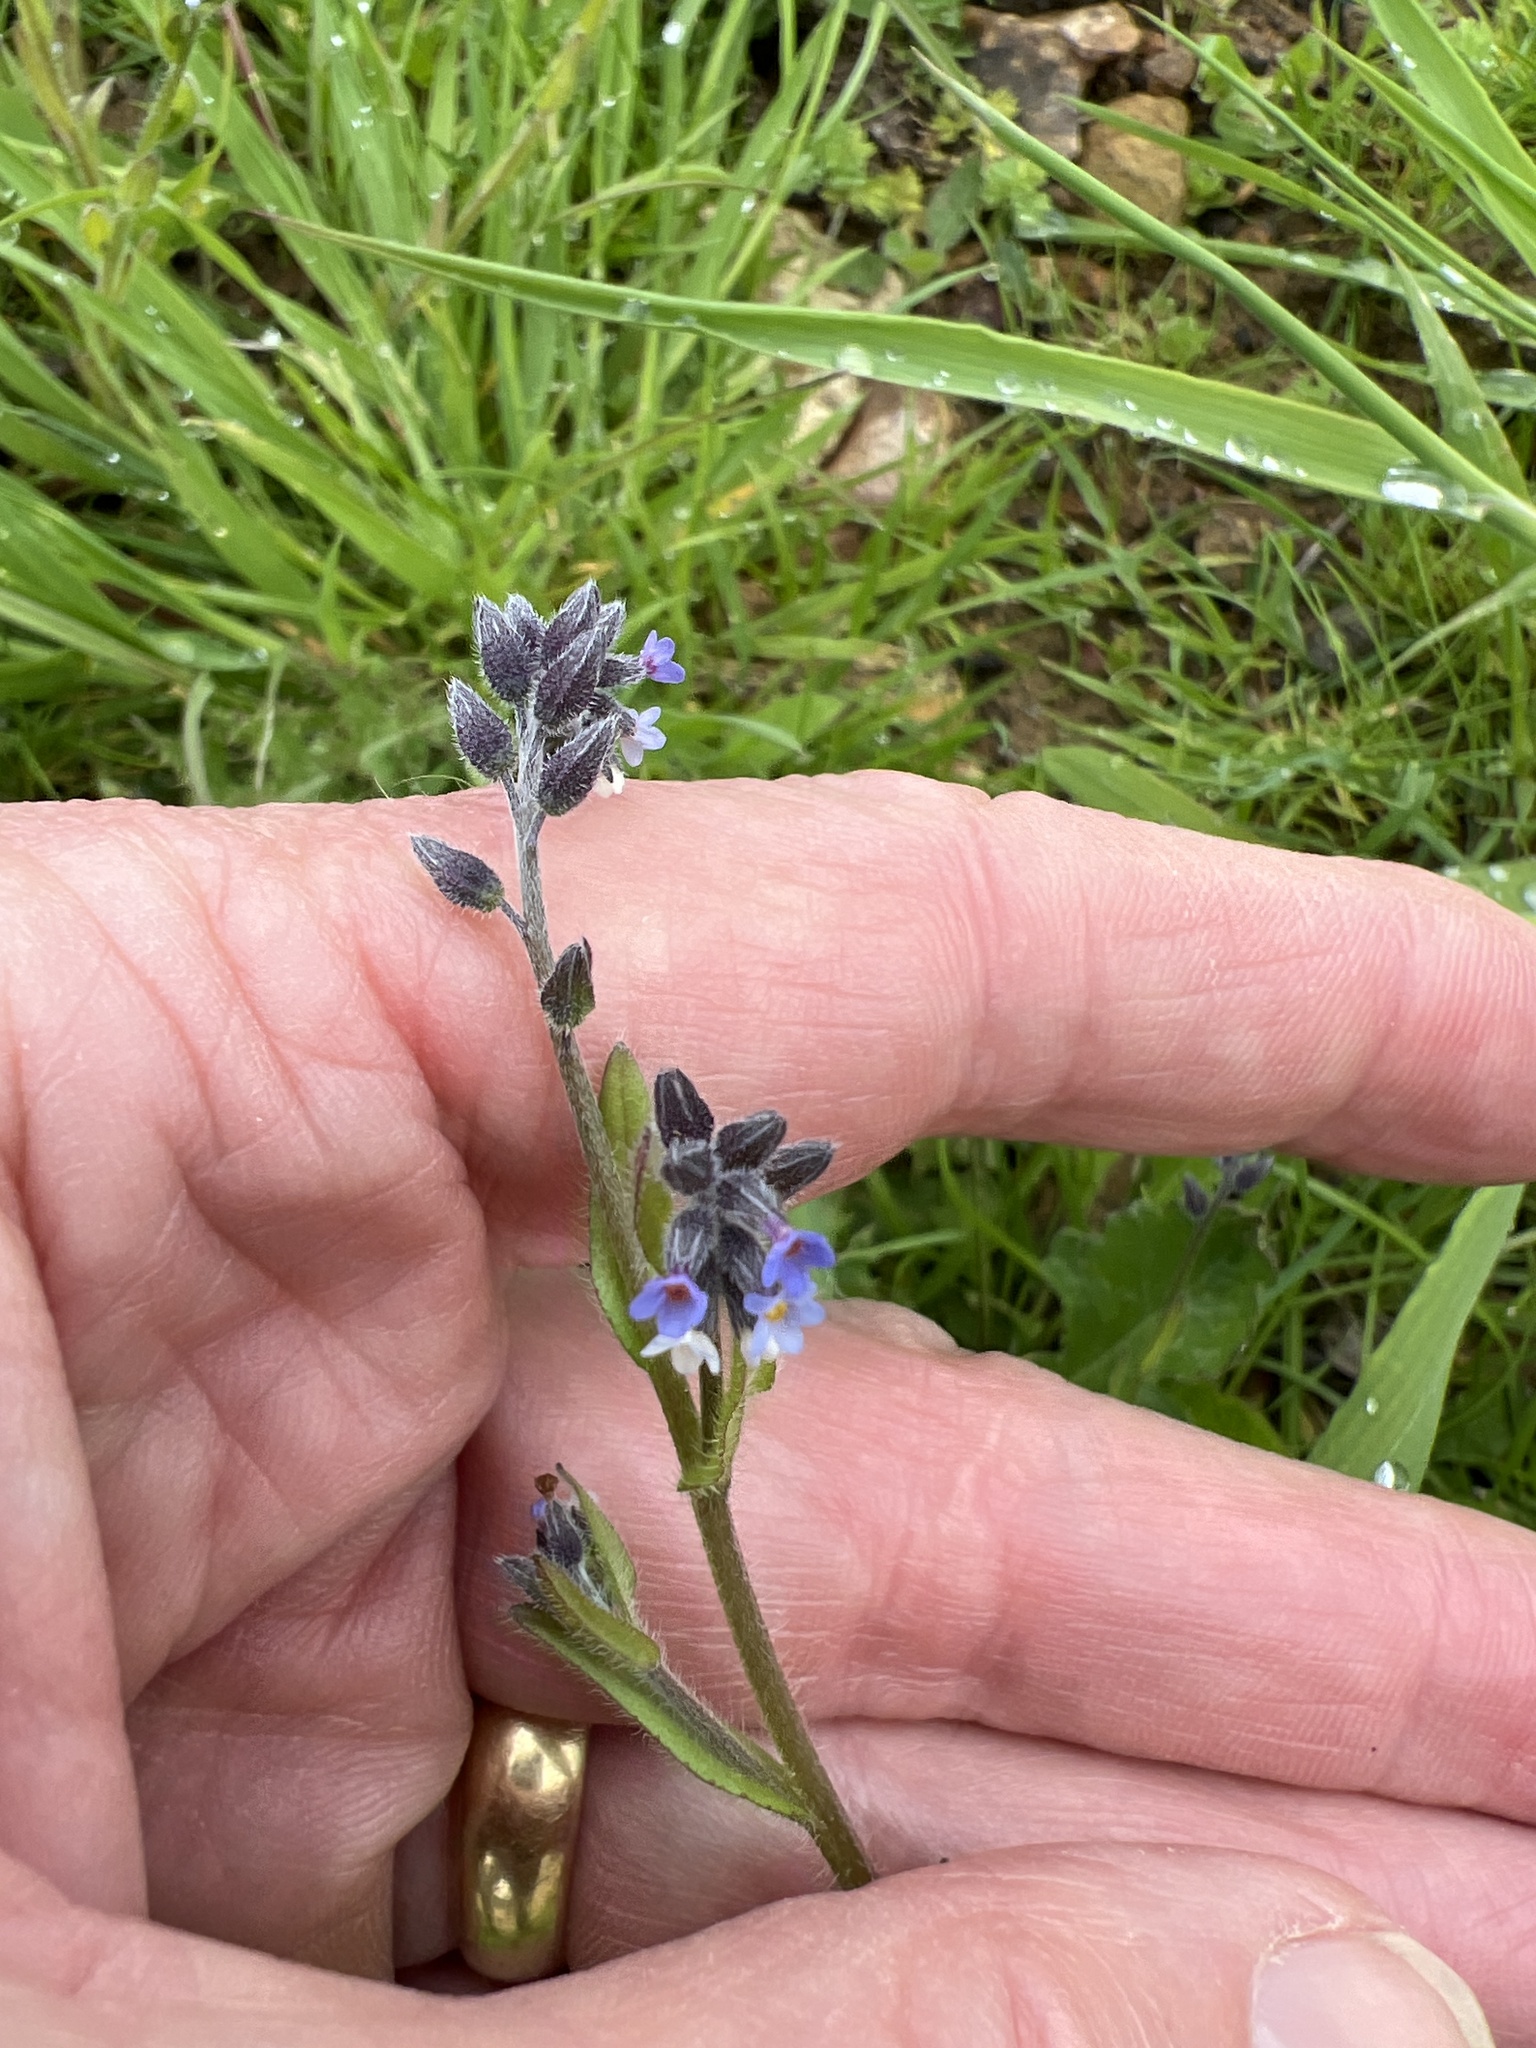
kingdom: Plantae
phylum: Tracheophyta
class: Magnoliopsida
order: Boraginales
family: Boraginaceae
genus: Myosotis
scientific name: Myosotis discolor
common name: Changing forget-me-not
